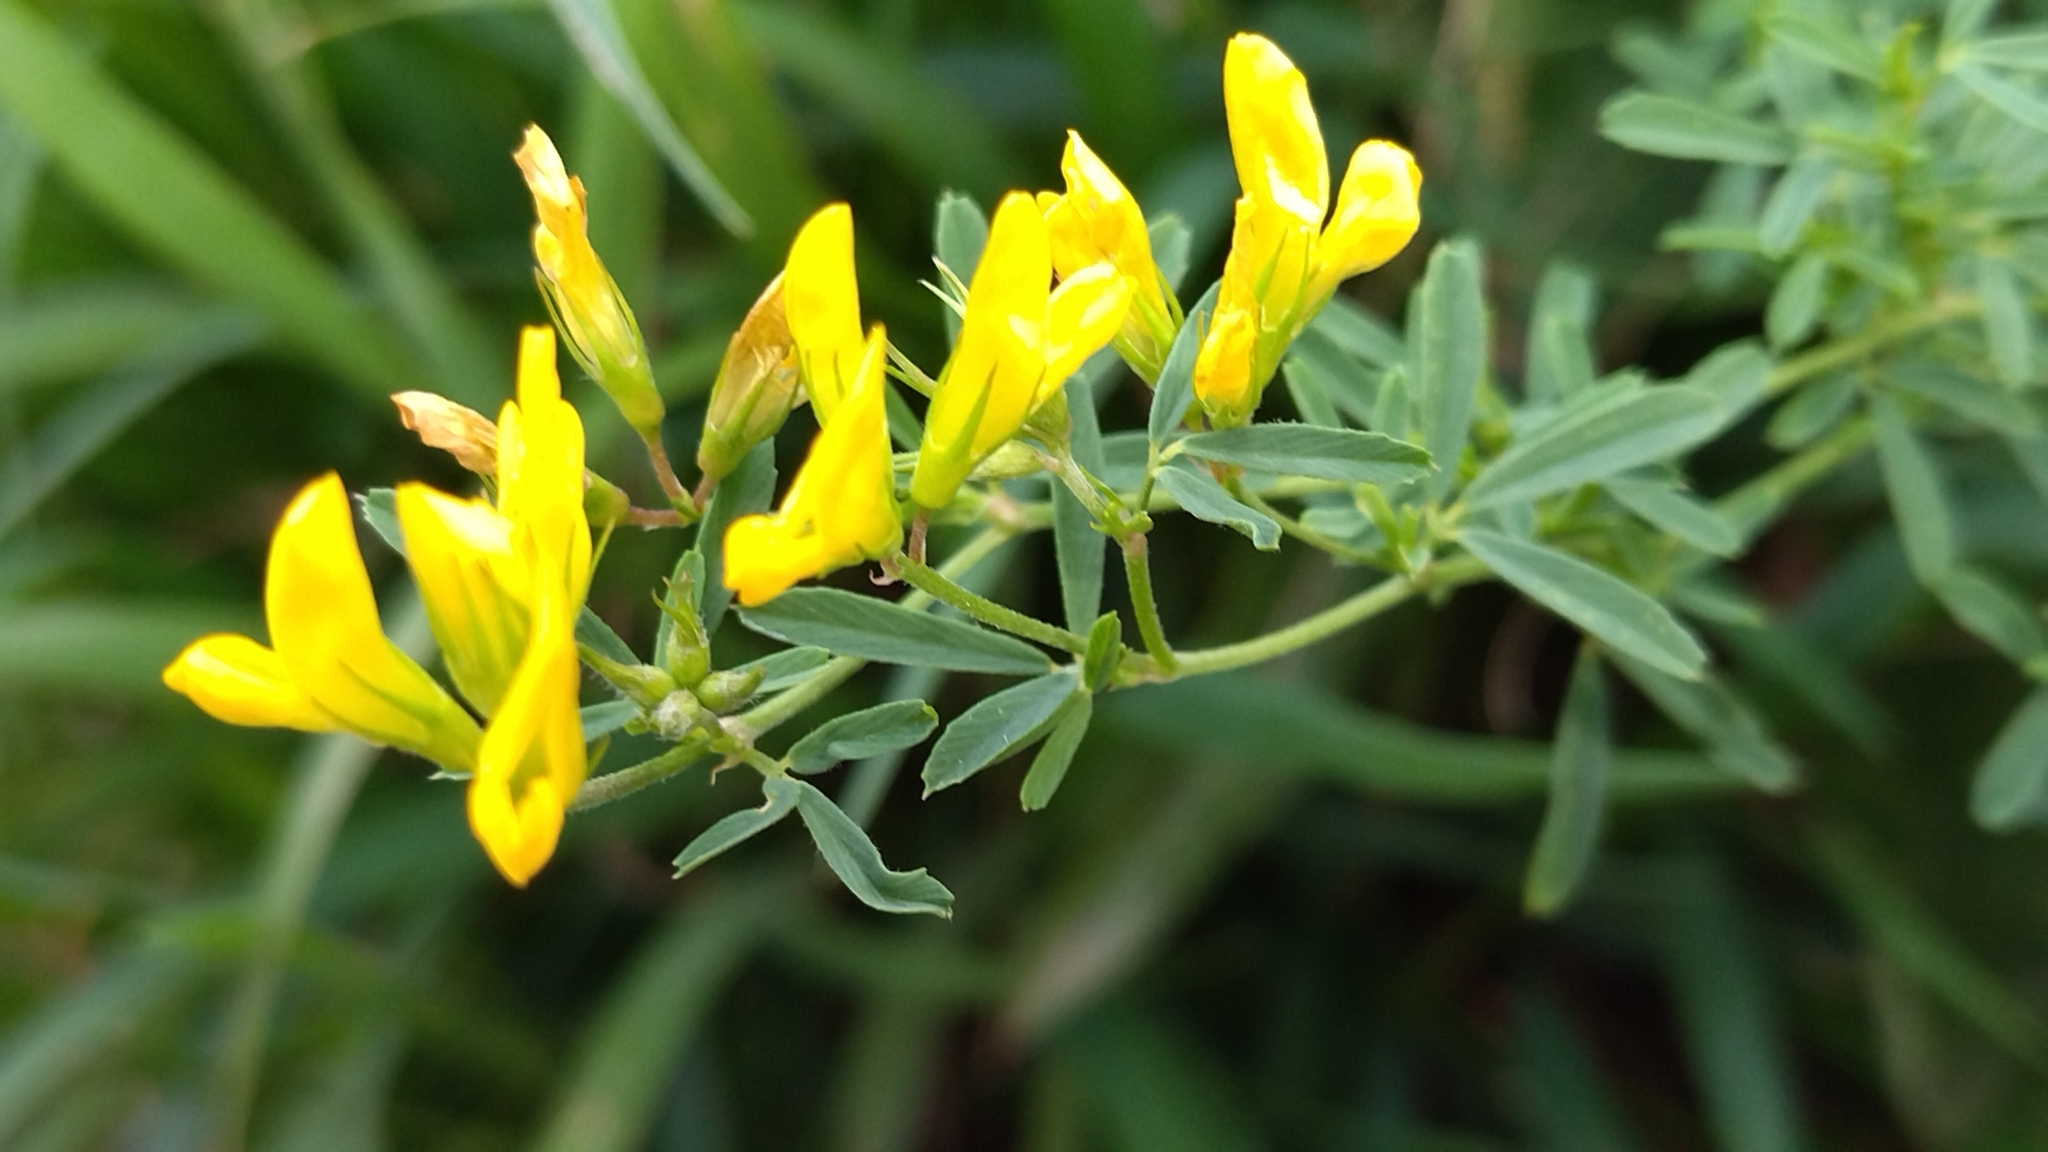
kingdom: Plantae
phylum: Tracheophyta
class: Magnoliopsida
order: Fabales
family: Fabaceae
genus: Medicago
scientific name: Medicago falcata
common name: Sickle medick
